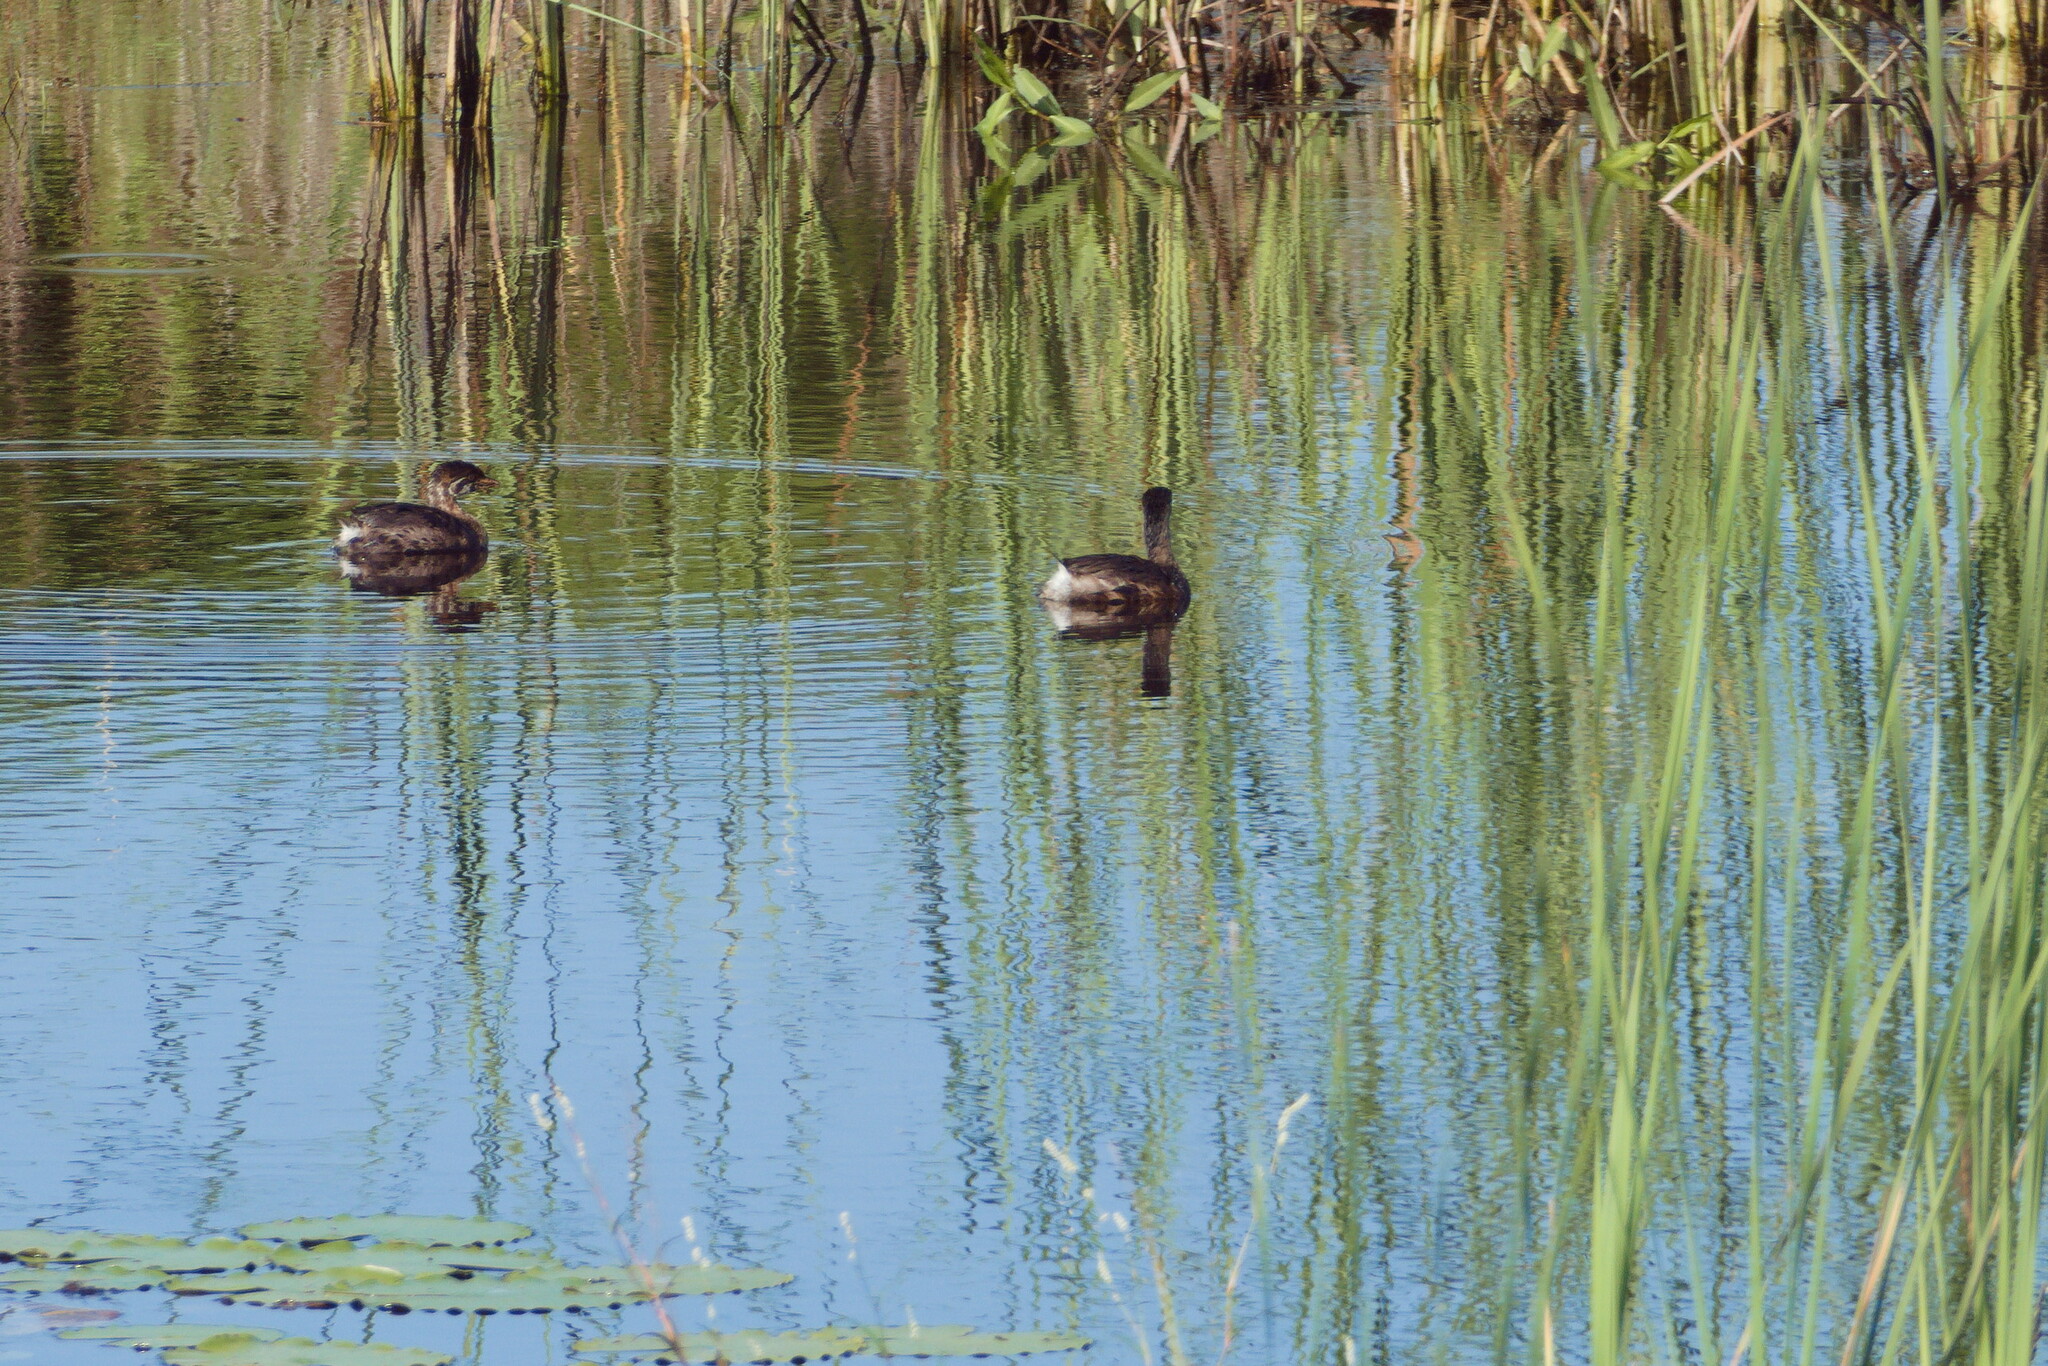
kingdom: Animalia
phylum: Chordata
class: Aves
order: Podicipediformes
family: Podicipedidae
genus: Podilymbus
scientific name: Podilymbus podiceps
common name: Pied-billed grebe
